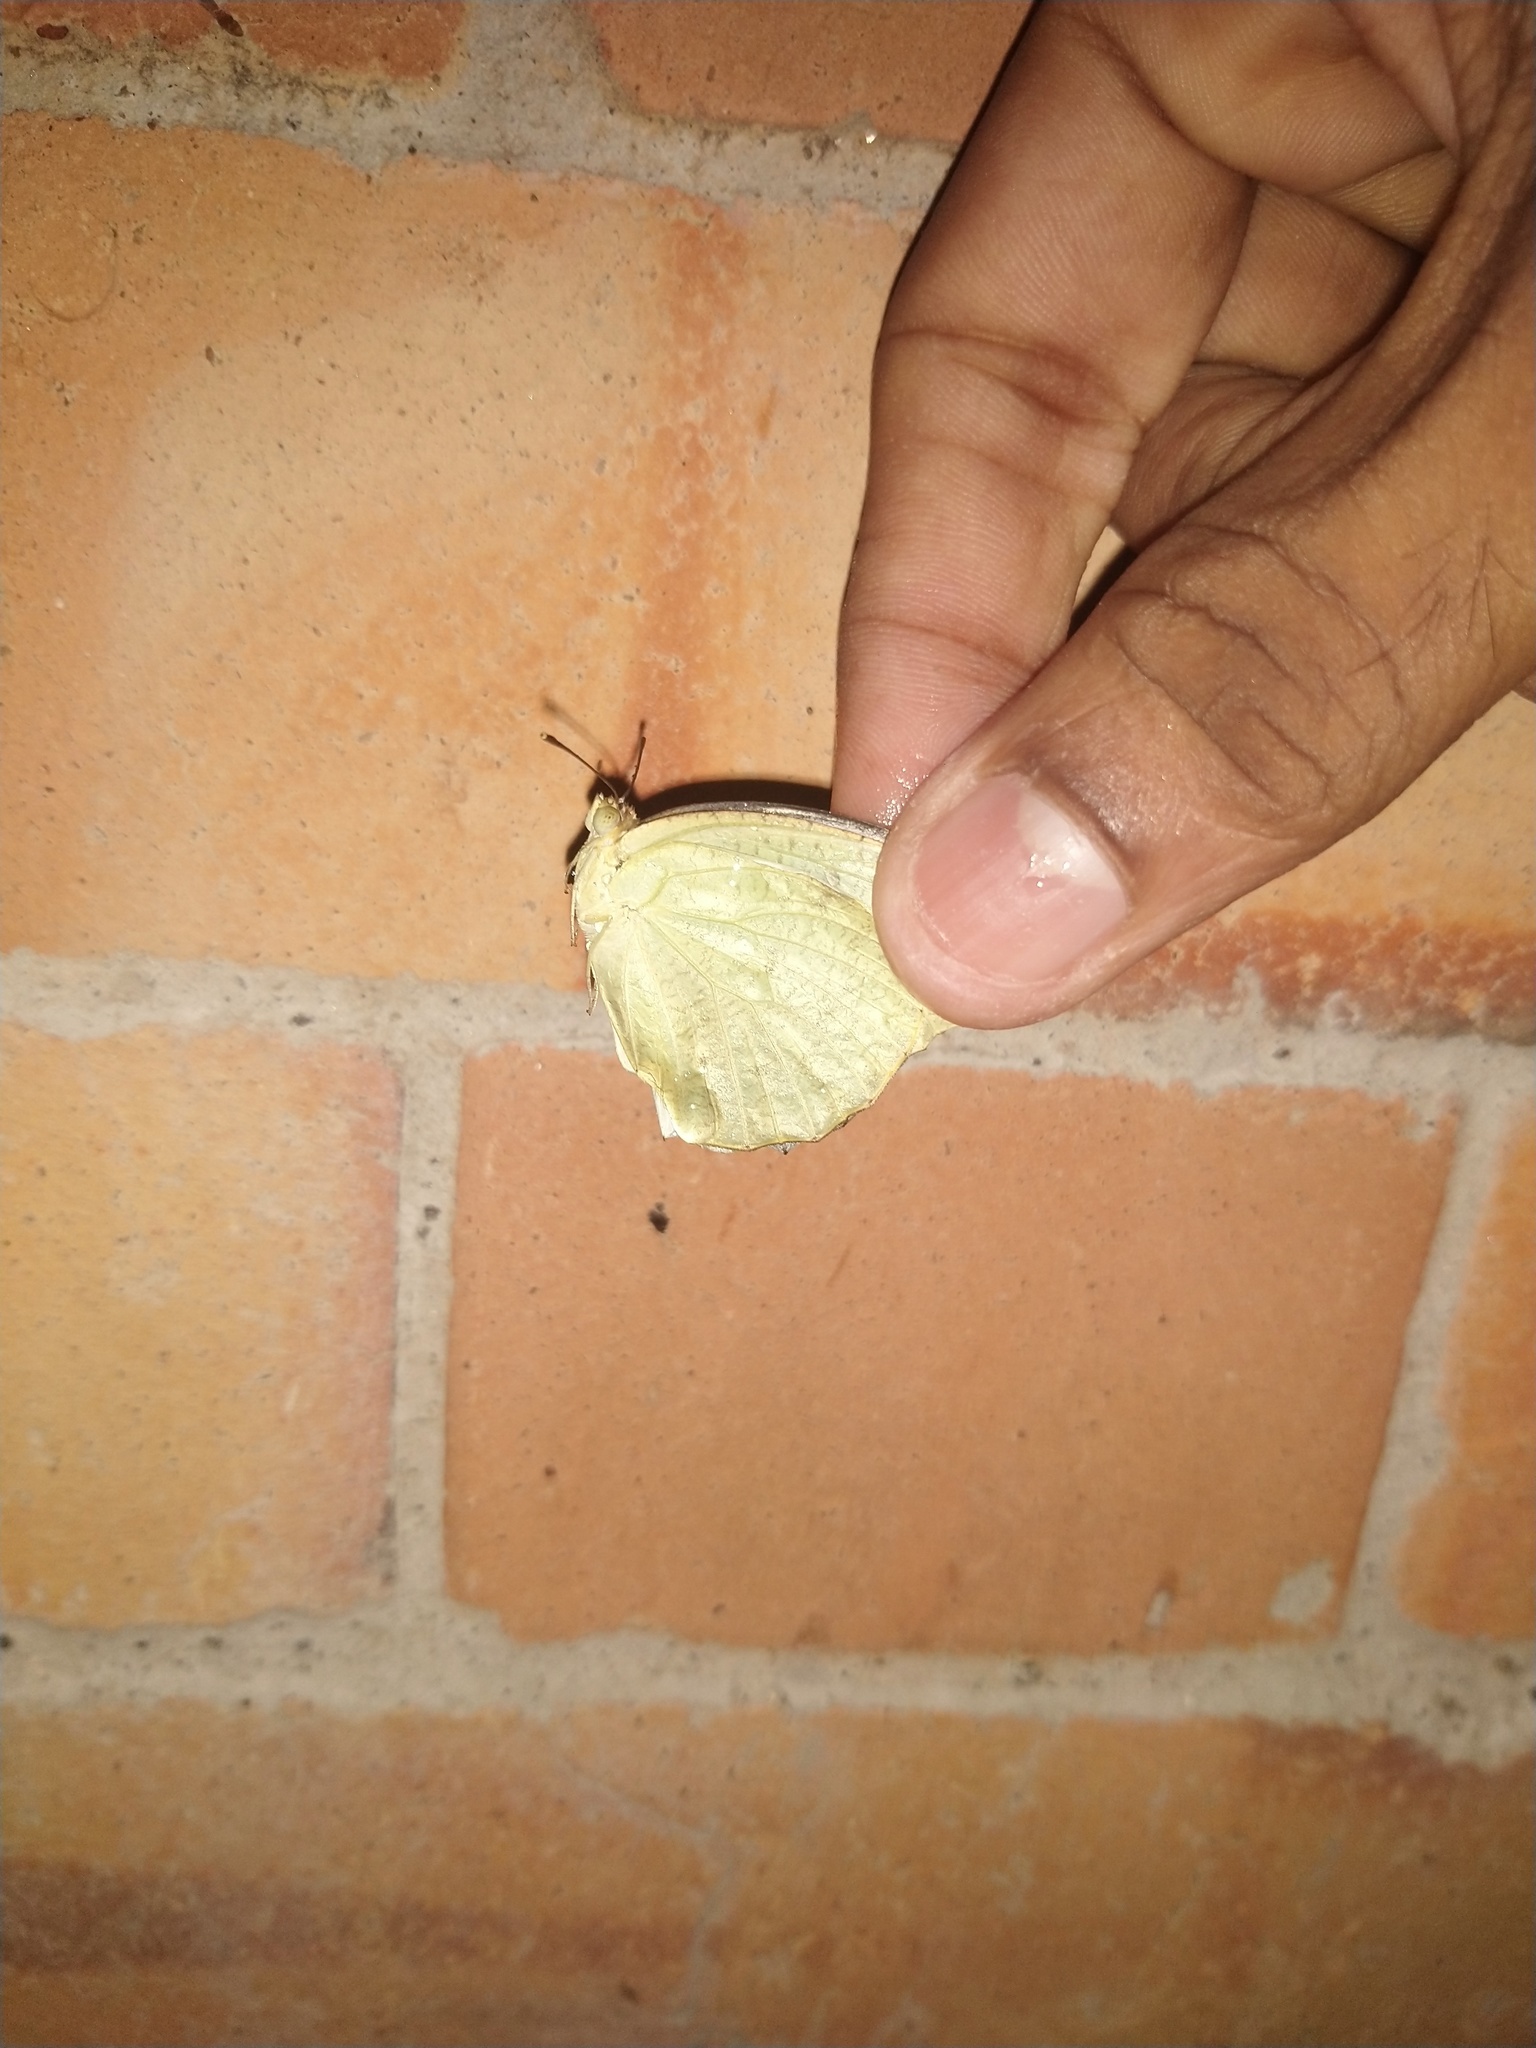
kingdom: Animalia
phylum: Arthropoda
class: Insecta
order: Lepidoptera
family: Pieridae
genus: Catopsilia
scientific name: Catopsilia pyranthe
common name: Mottled emigrant
